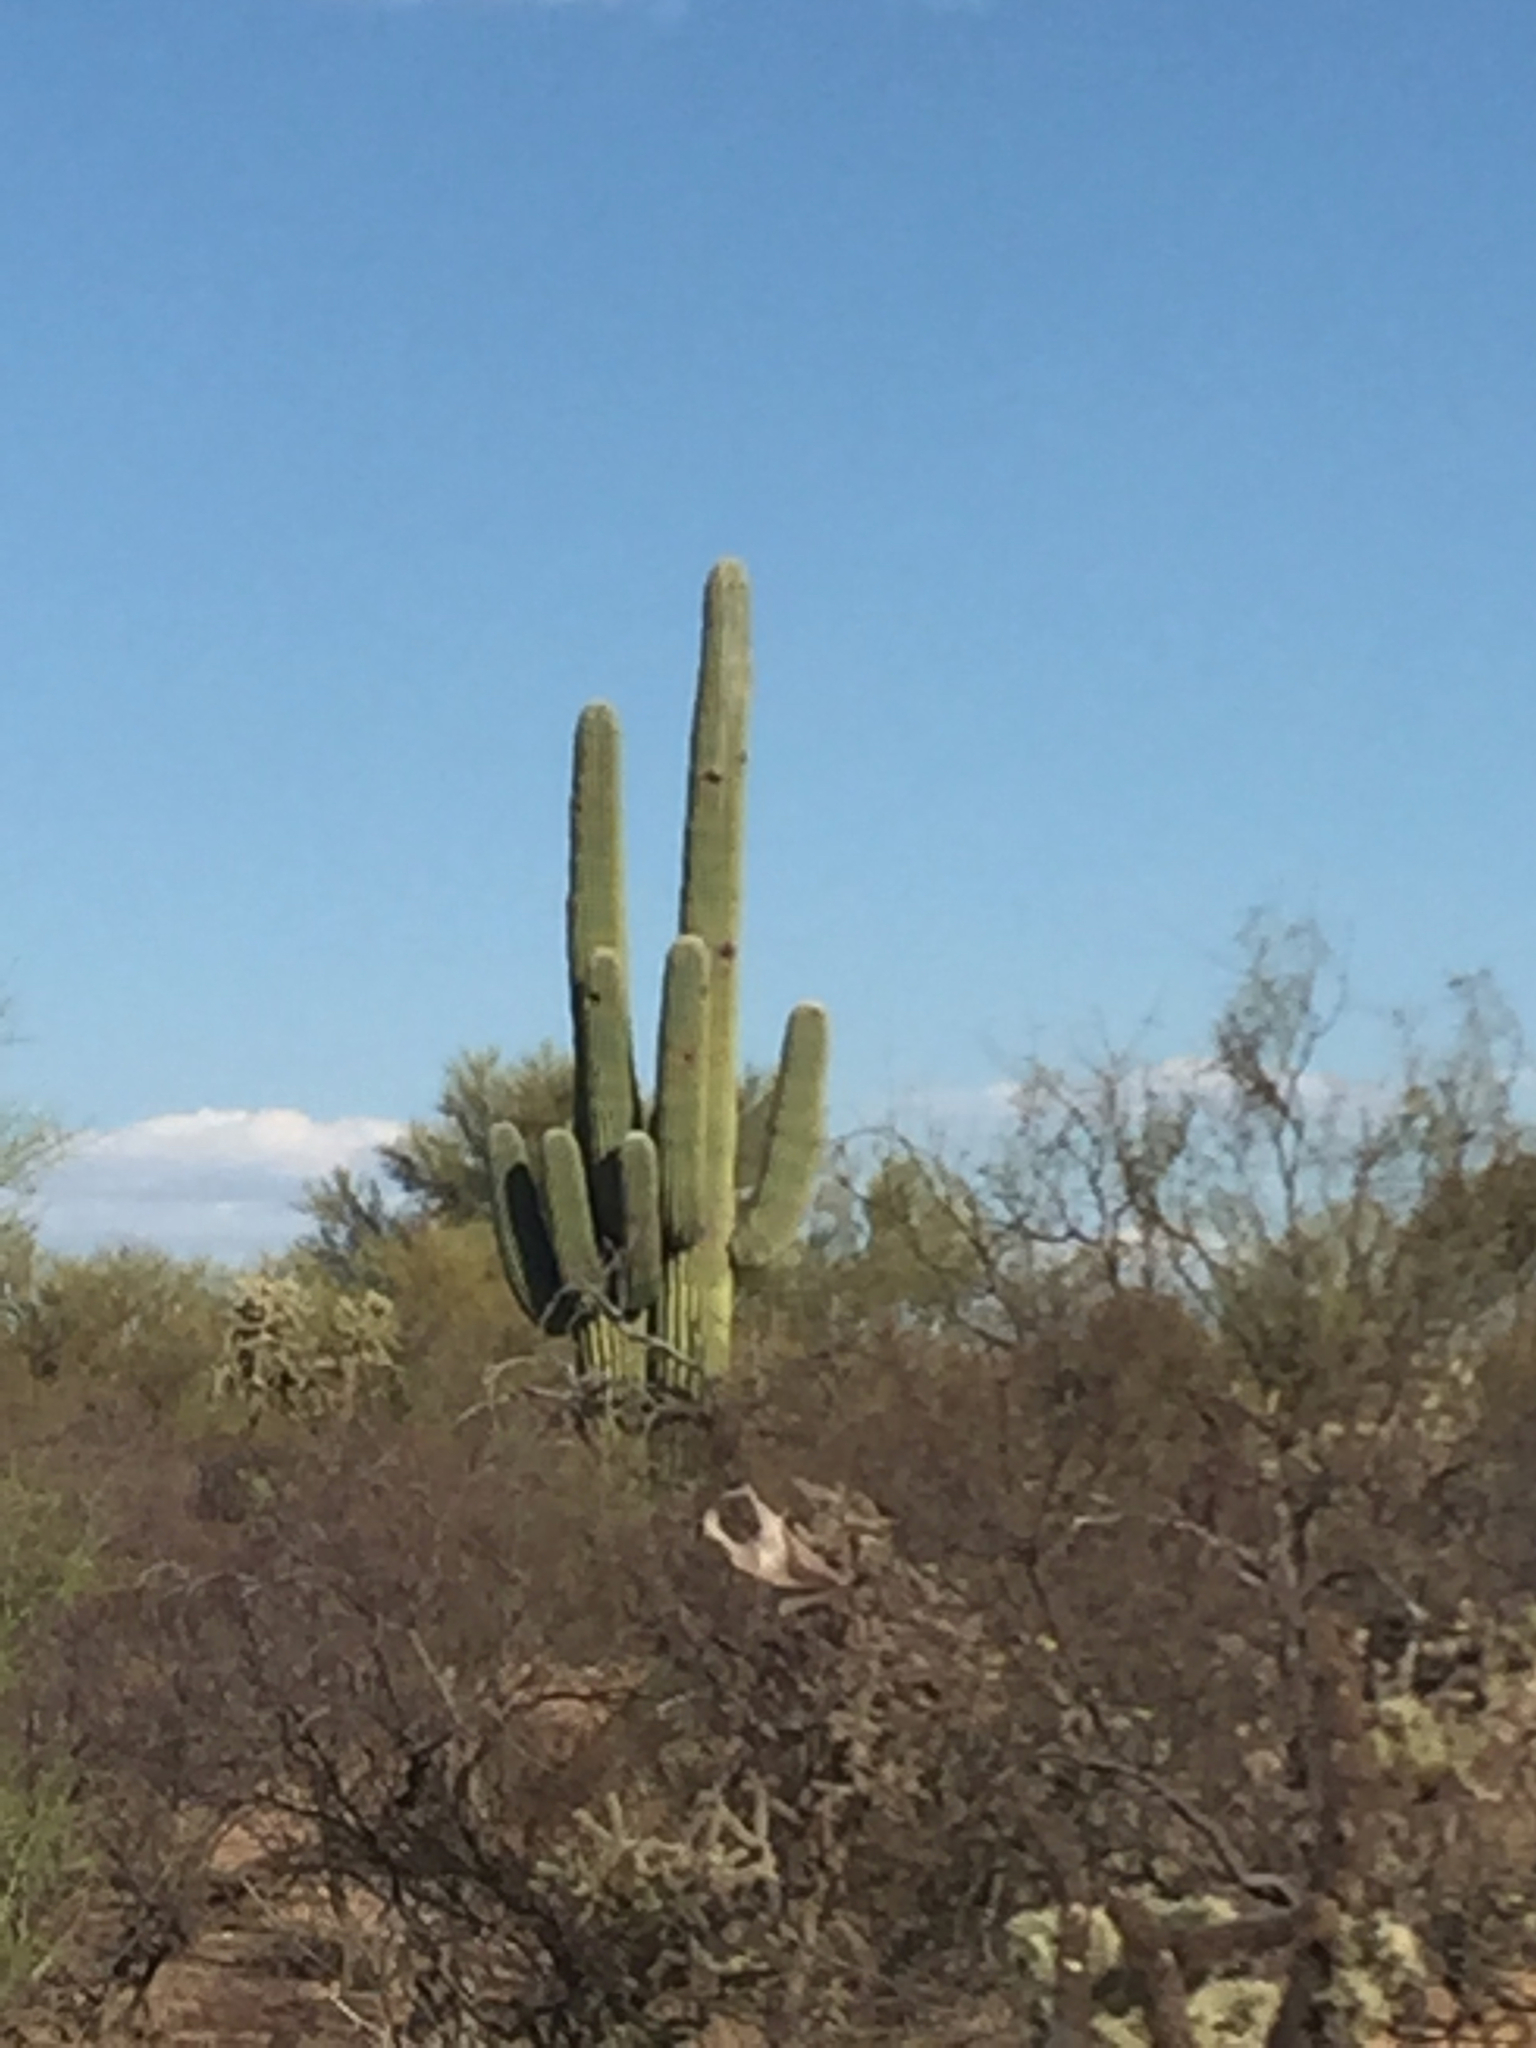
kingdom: Plantae
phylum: Tracheophyta
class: Magnoliopsida
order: Caryophyllales
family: Cactaceae
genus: Carnegiea
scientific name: Carnegiea gigantea
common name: Saguaro
